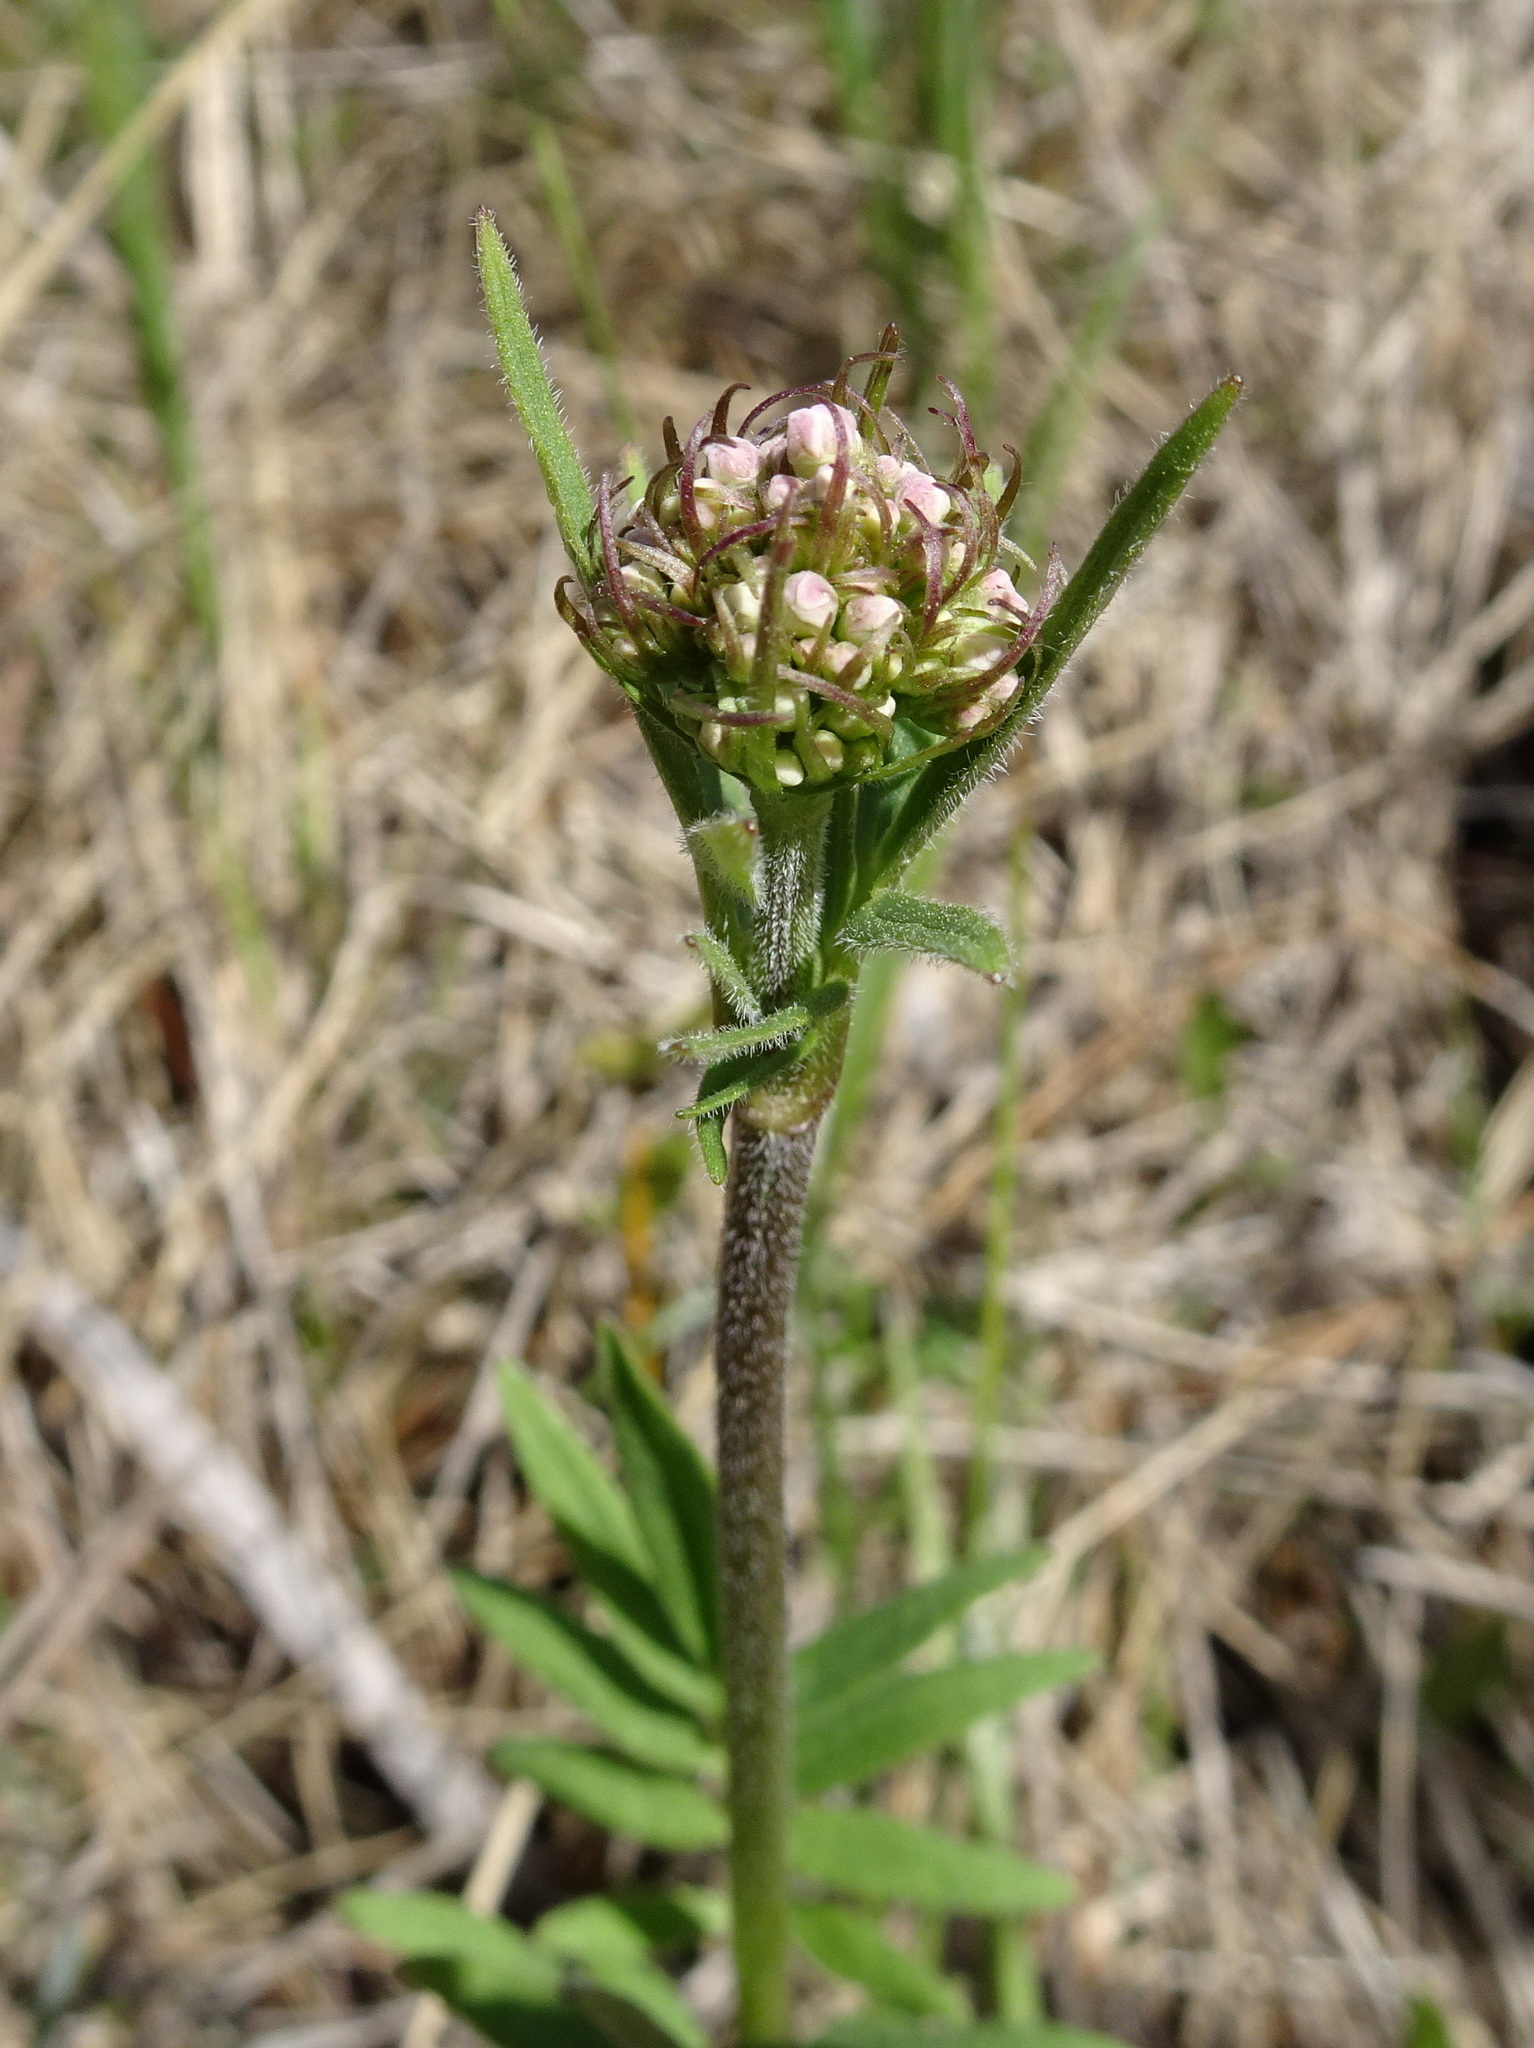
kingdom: Plantae
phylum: Tracheophyta
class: Magnoliopsida
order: Dipsacales
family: Caprifoliaceae
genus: Valeriana
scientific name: Valeriana uliginosa
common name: Marsh valerian
